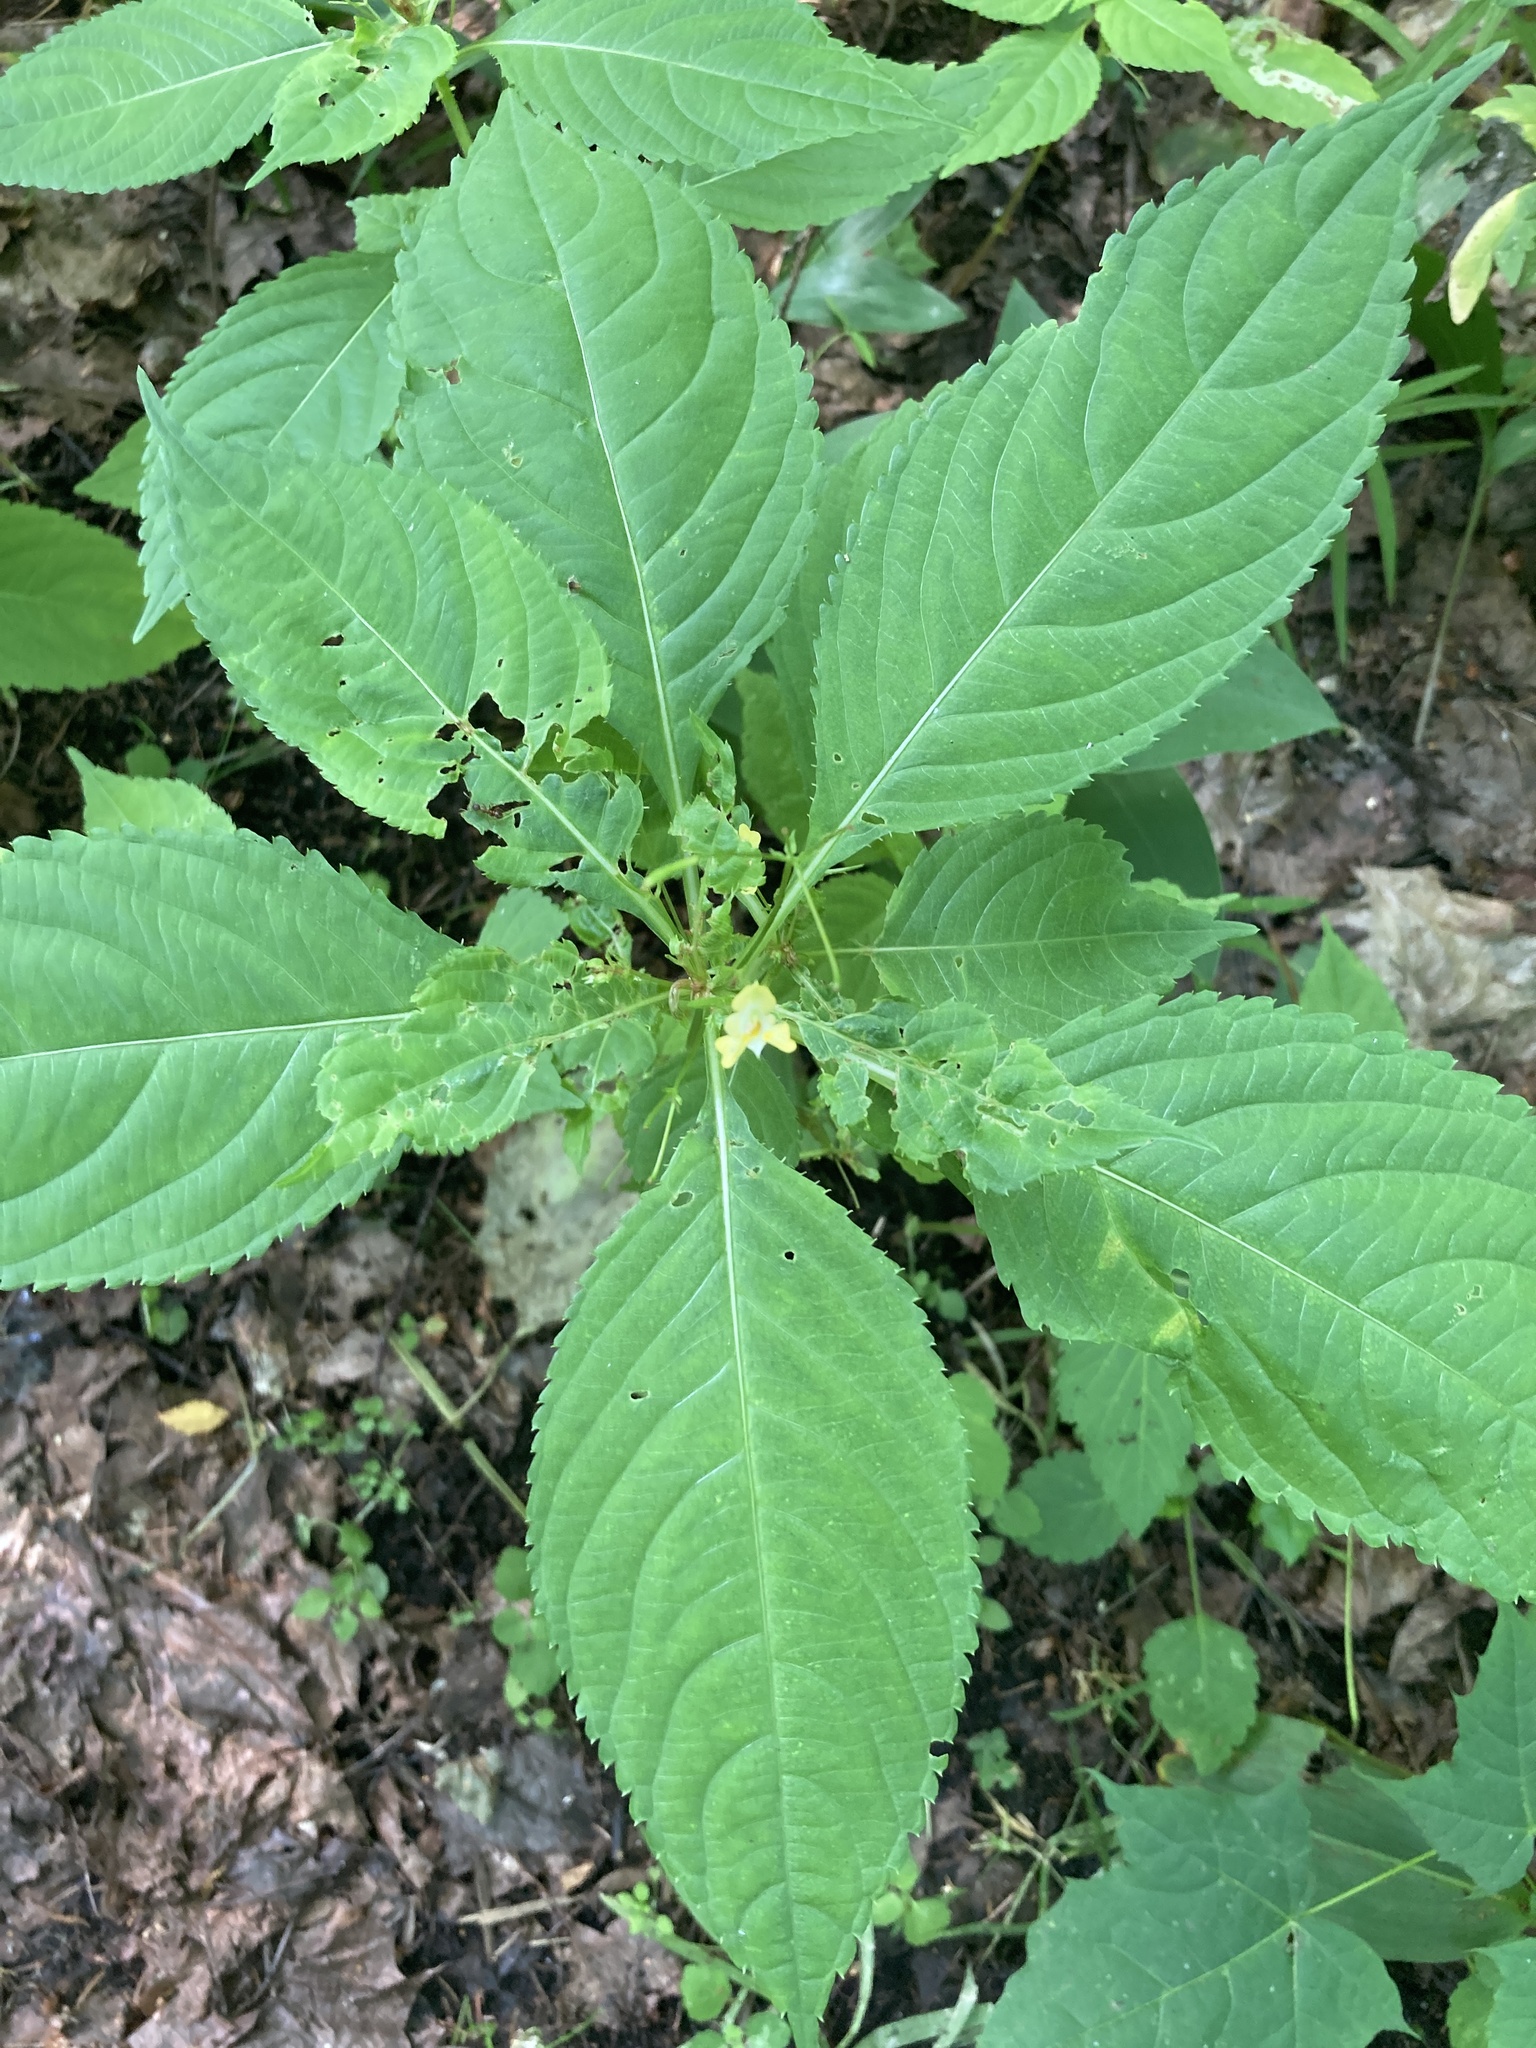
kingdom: Plantae
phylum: Tracheophyta
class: Magnoliopsida
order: Ericales
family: Balsaminaceae
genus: Impatiens
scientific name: Impatiens parviflora
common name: Small balsam
